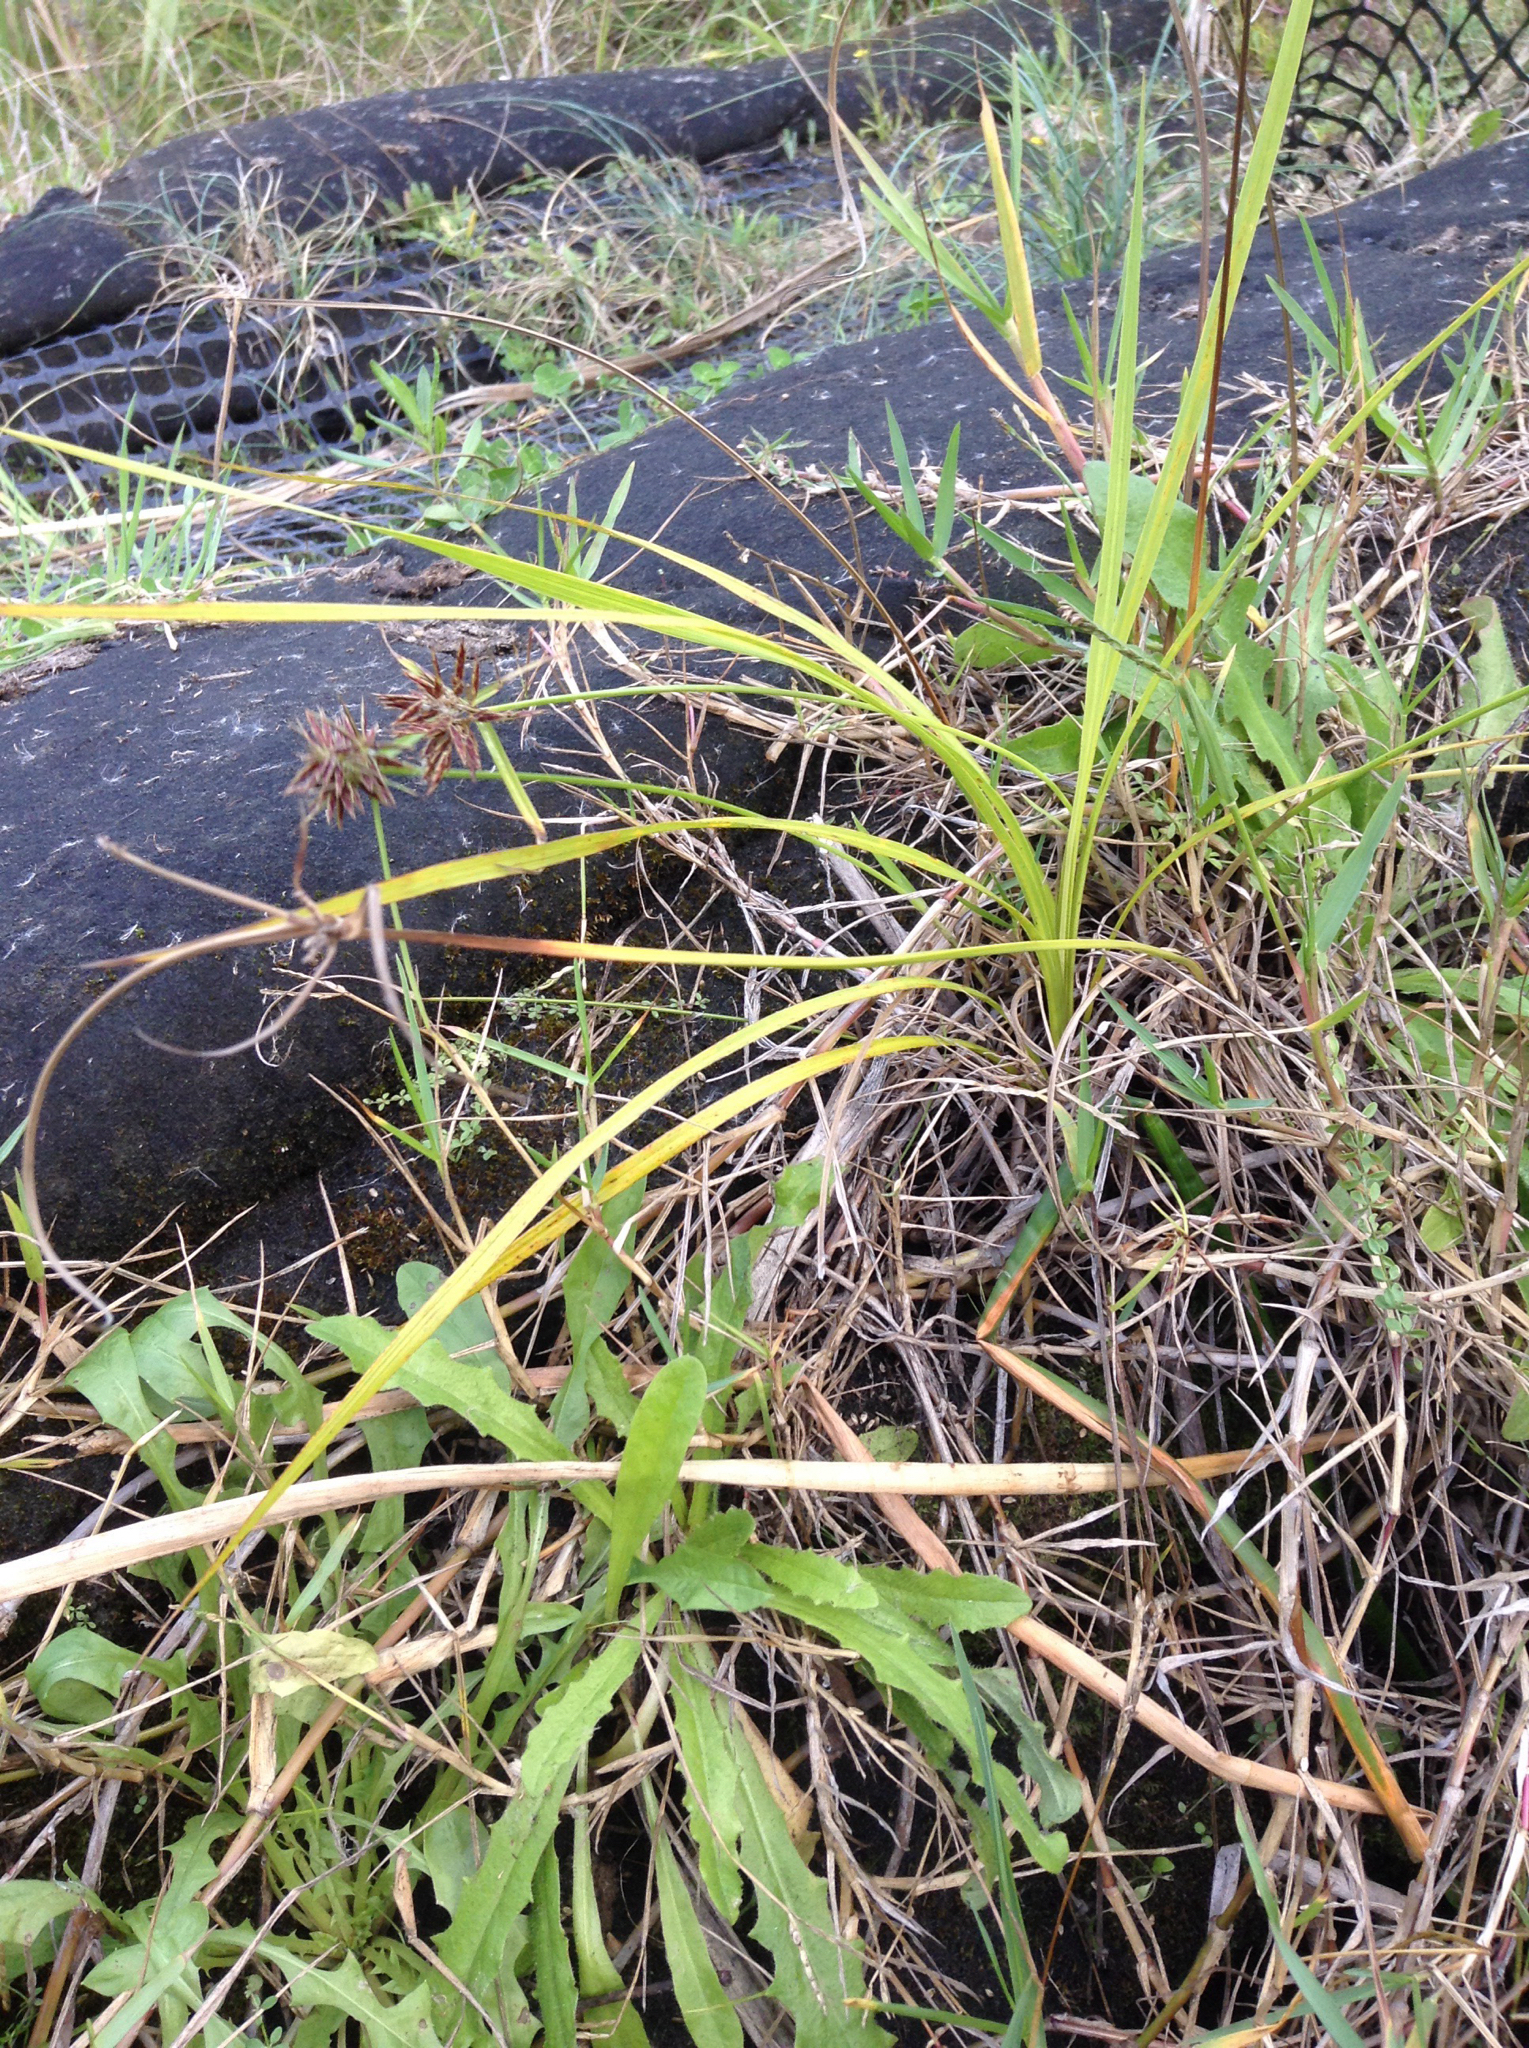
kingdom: Plantae
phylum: Tracheophyta
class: Liliopsida
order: Poales
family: Cyperaceae
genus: Cyperus
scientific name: Cyperus congestus
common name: Dense flat sedge
